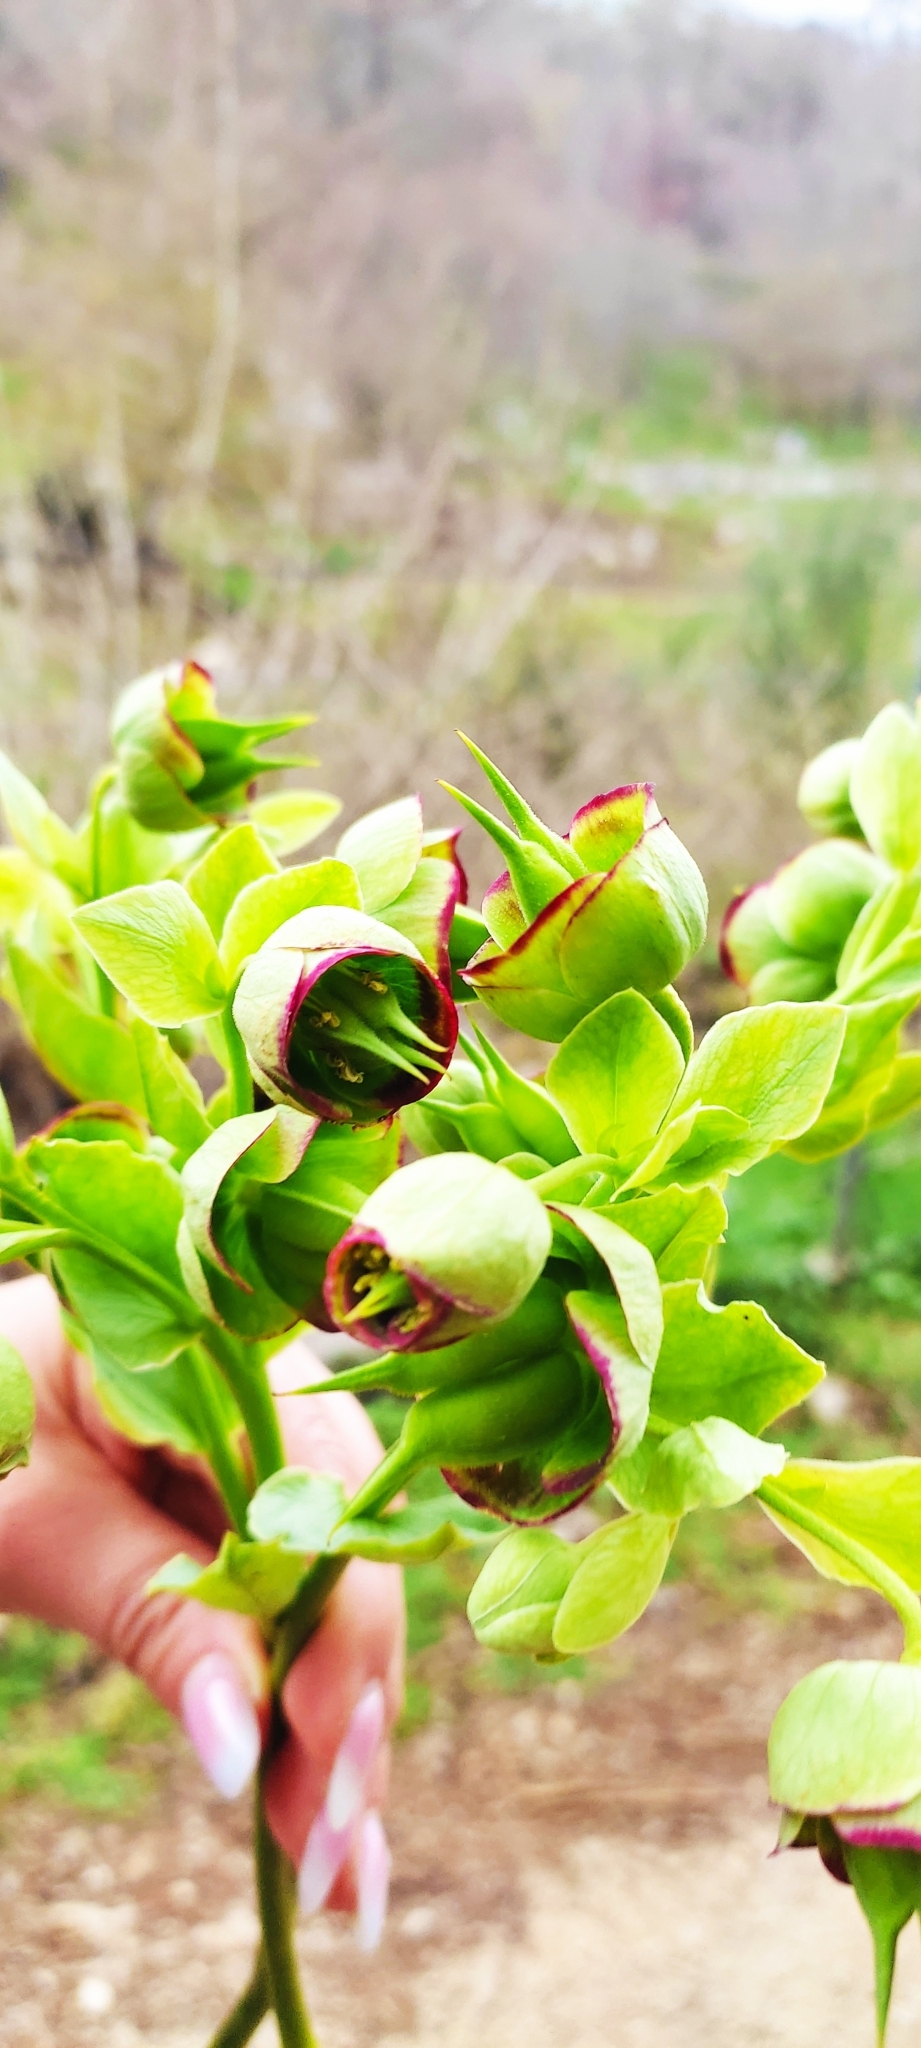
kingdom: Plantae
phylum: Tracheophyta
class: Magnoliopsida
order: Ranunculales
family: Ranunculaceae
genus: Helleborus
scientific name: Helleborus foetidus
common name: Stinking hellebore
